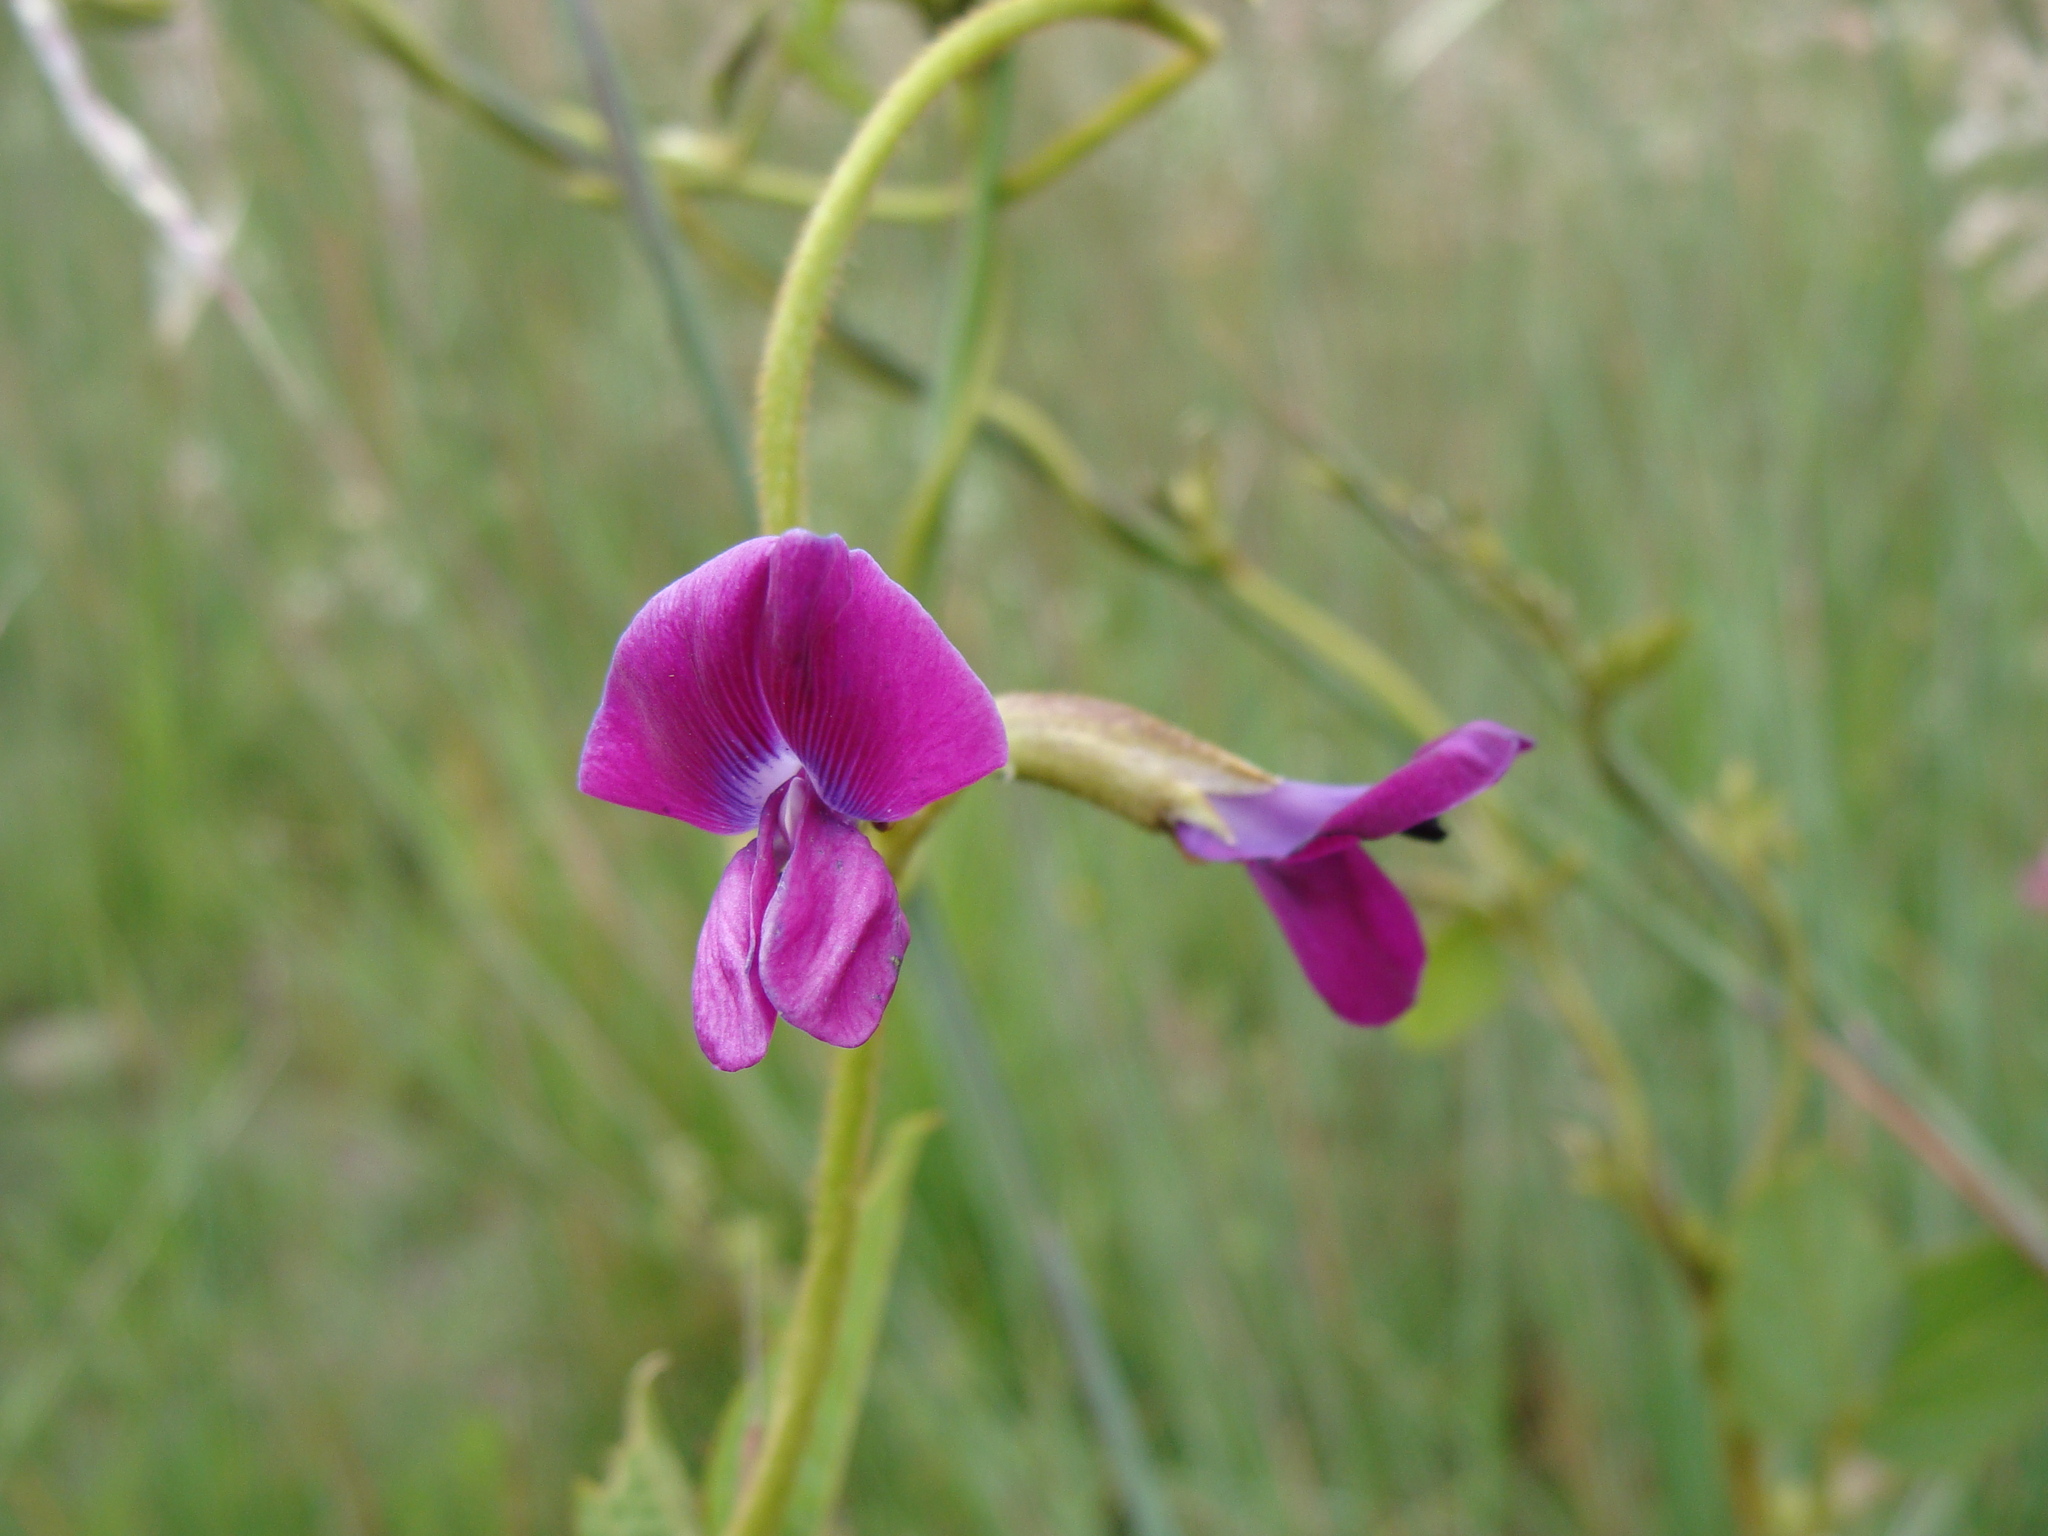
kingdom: Plantae
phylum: Tracheophyta
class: Magnoliopsida
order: Fabales
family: Fabaceae
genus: Cologania
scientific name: Cologania broussonetii
